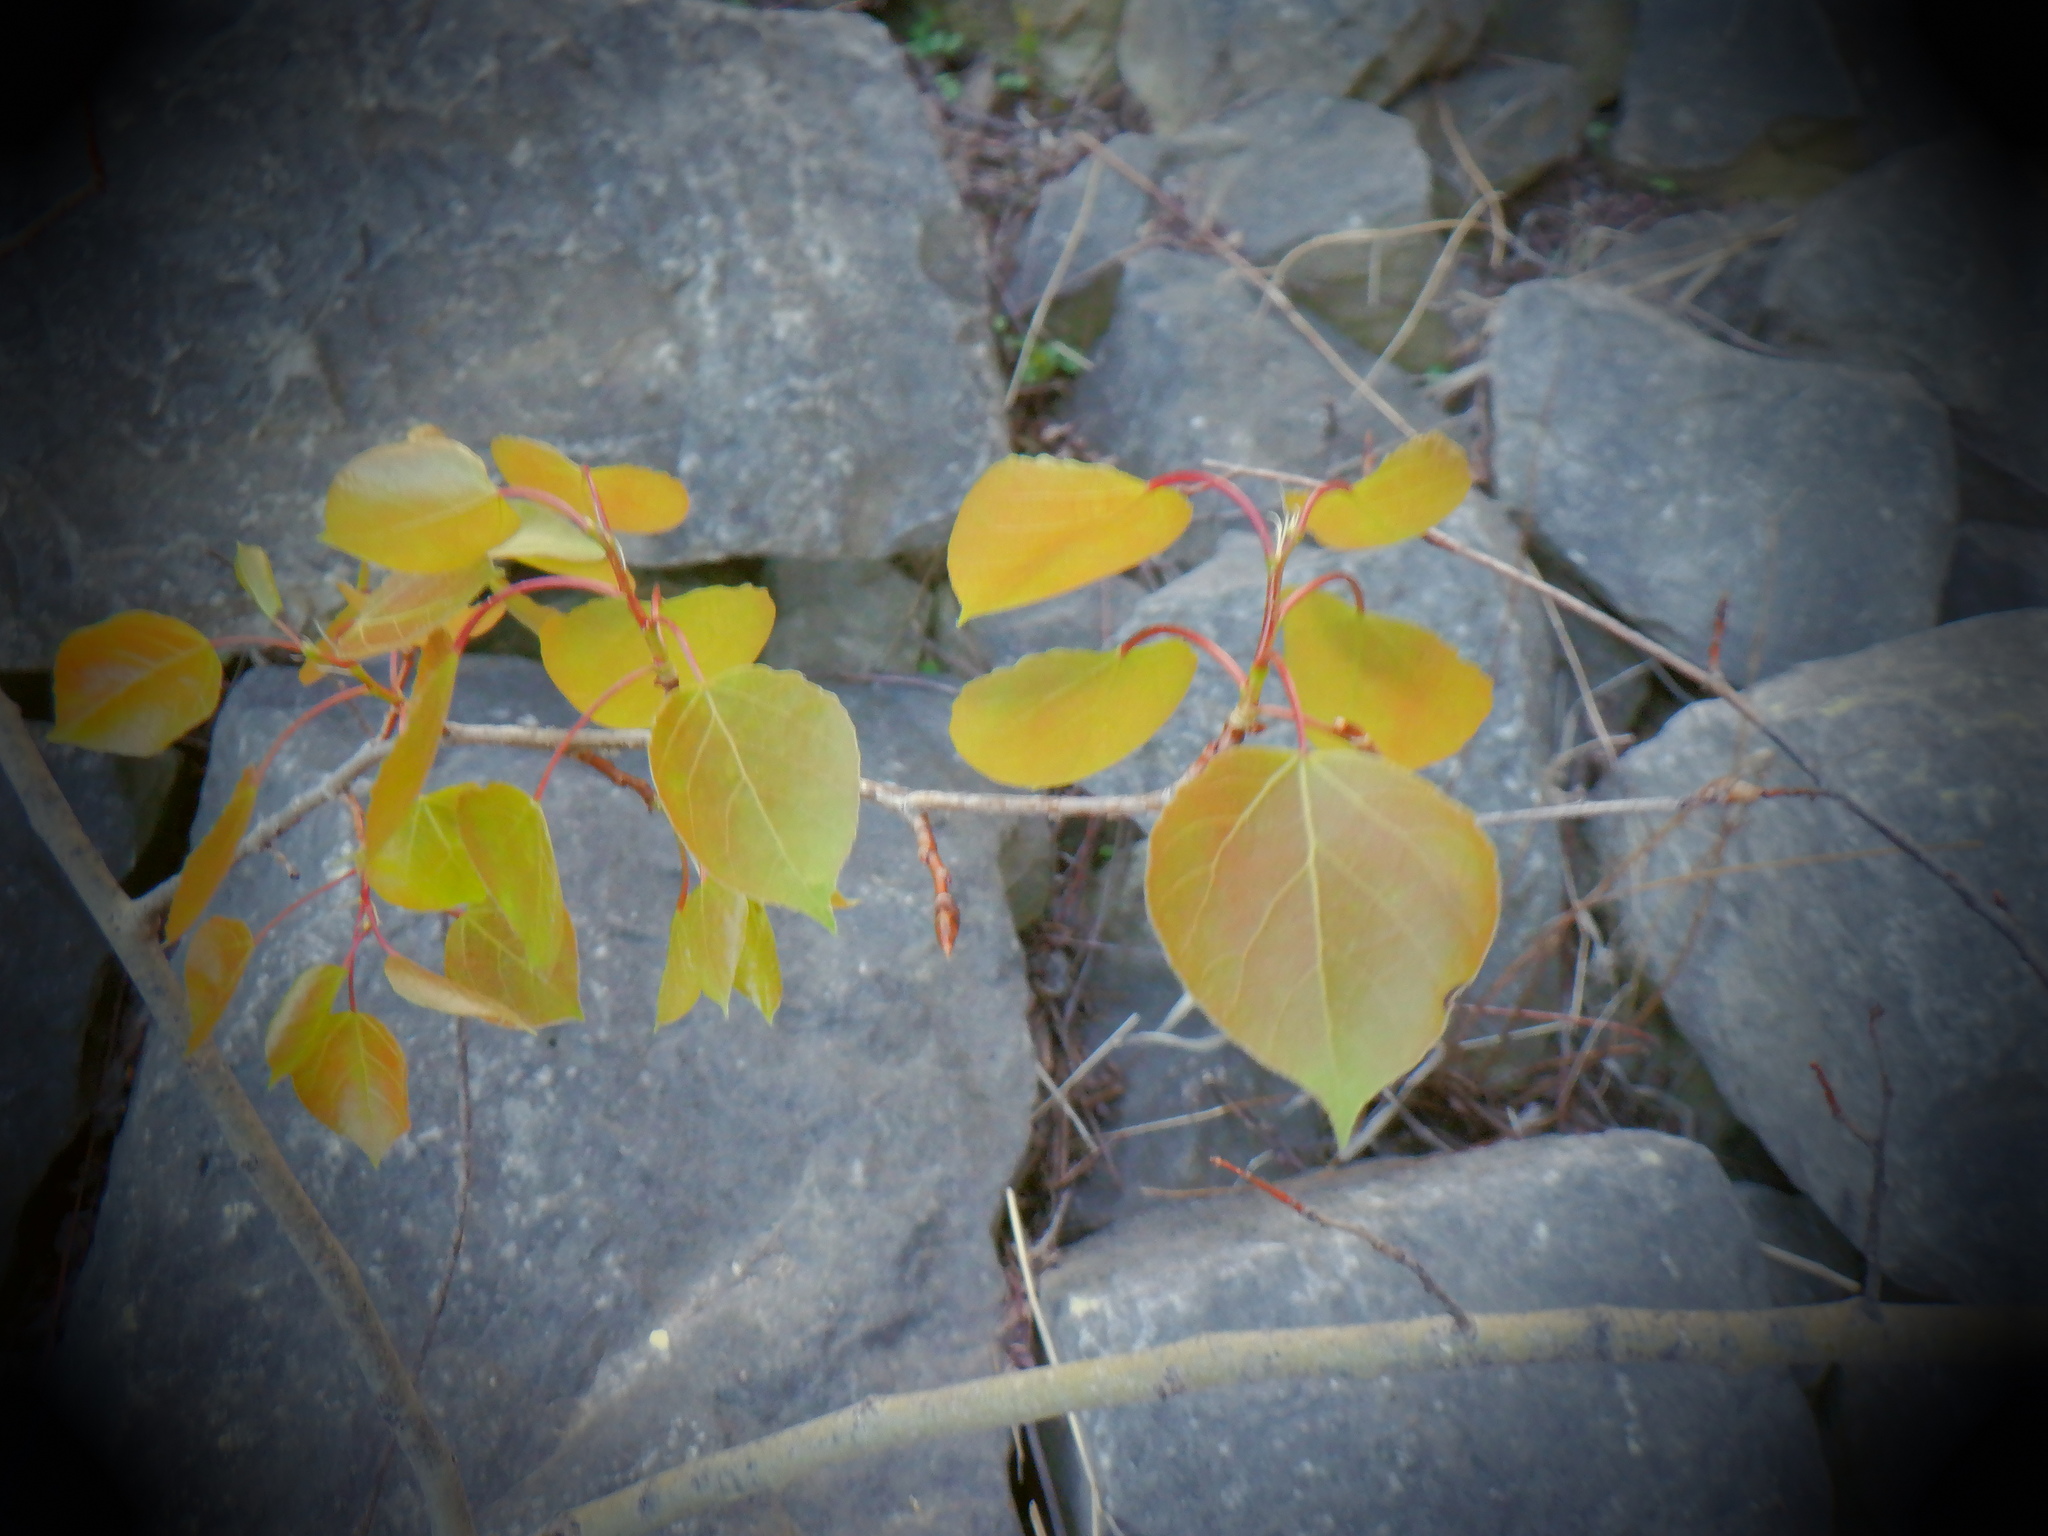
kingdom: Plantae
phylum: Tracheophyta
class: Magnoliopsida
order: Malpighiales
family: Salicaceae
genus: Populus
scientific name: Populus tremuloides
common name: Quaking aspen
